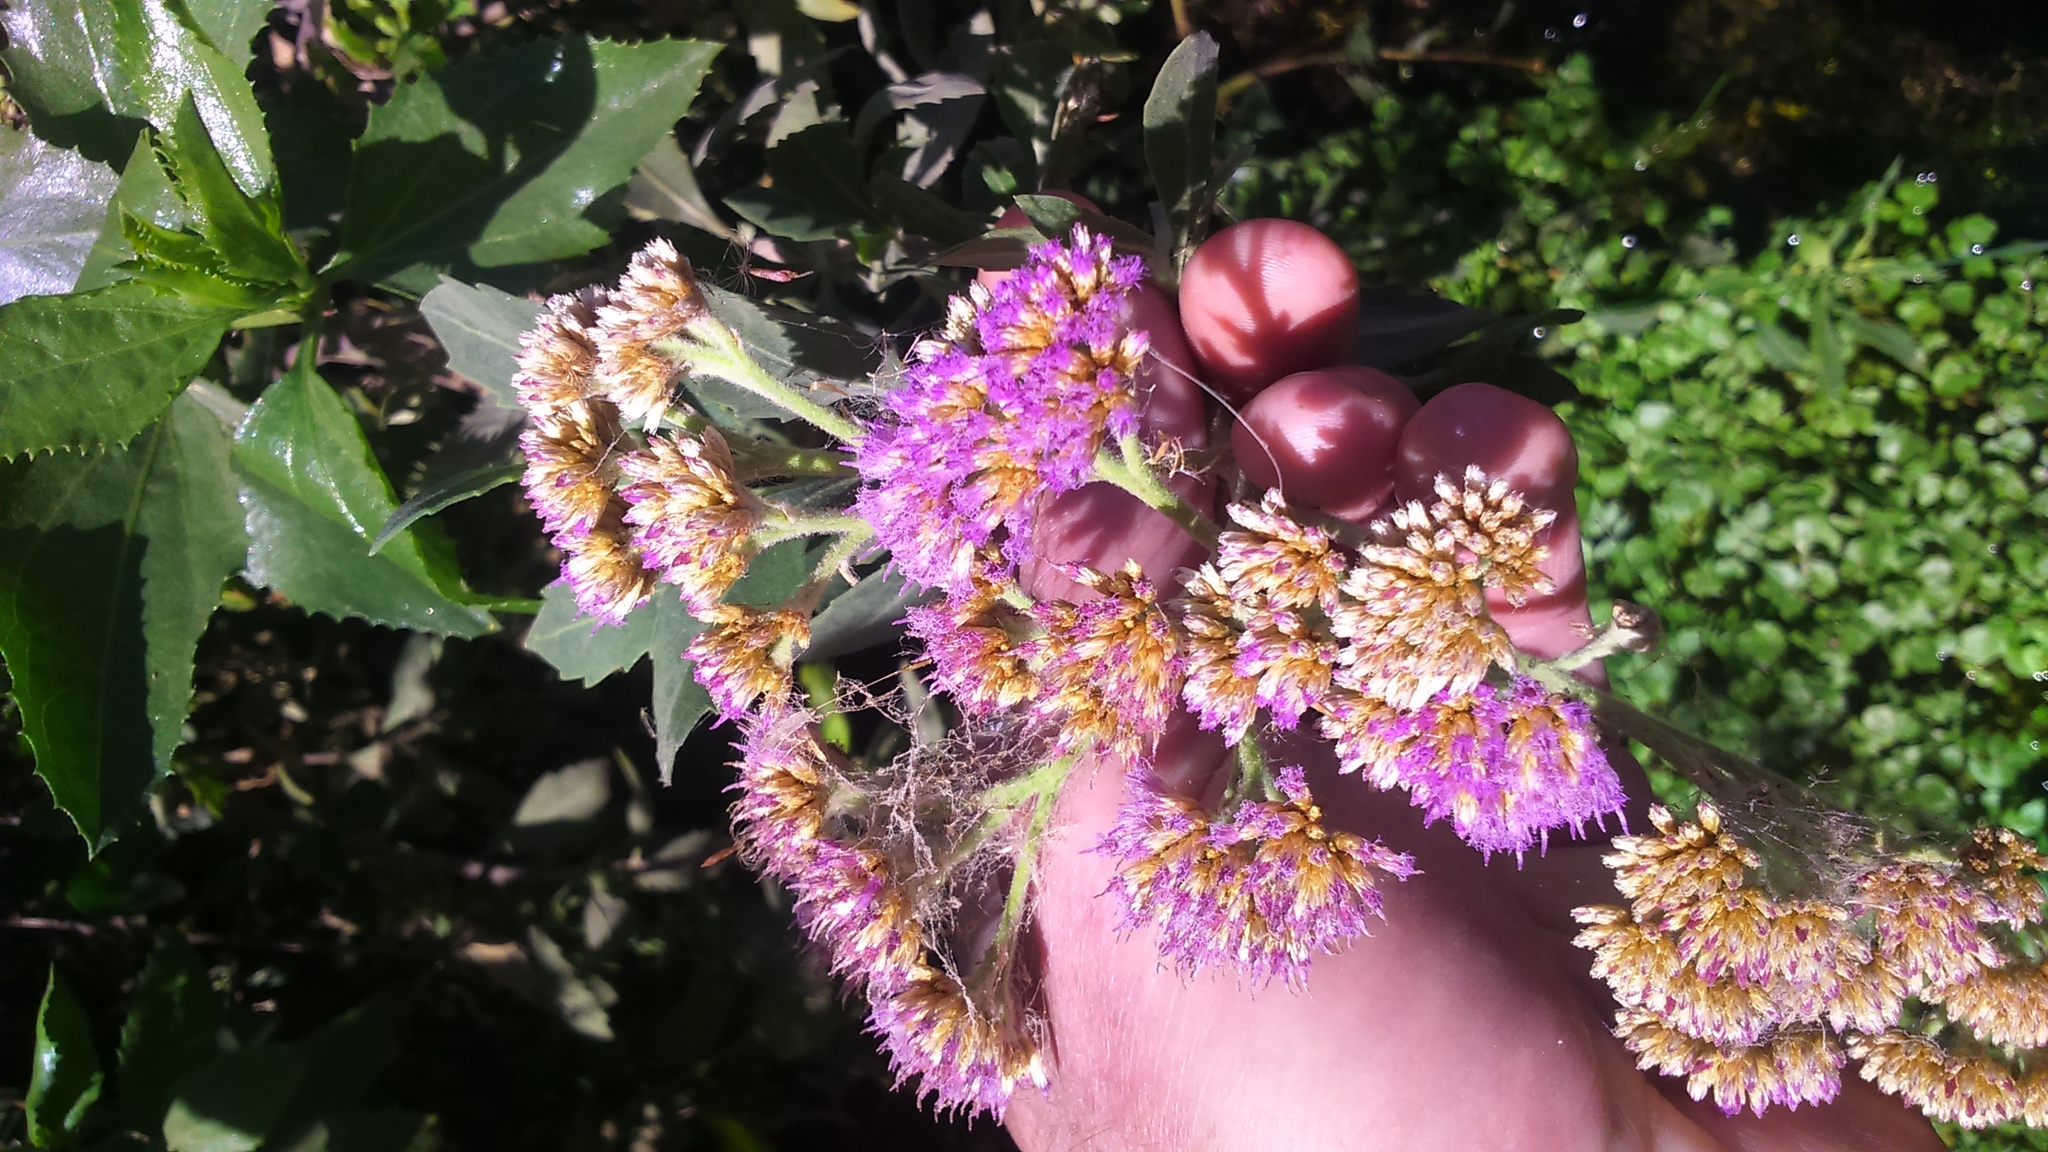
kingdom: Plantae
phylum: Tracheophyta
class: Magnoliopsida
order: Asterales
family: Asteraceae
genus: Tessaria
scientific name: Tessaria integrifolia
